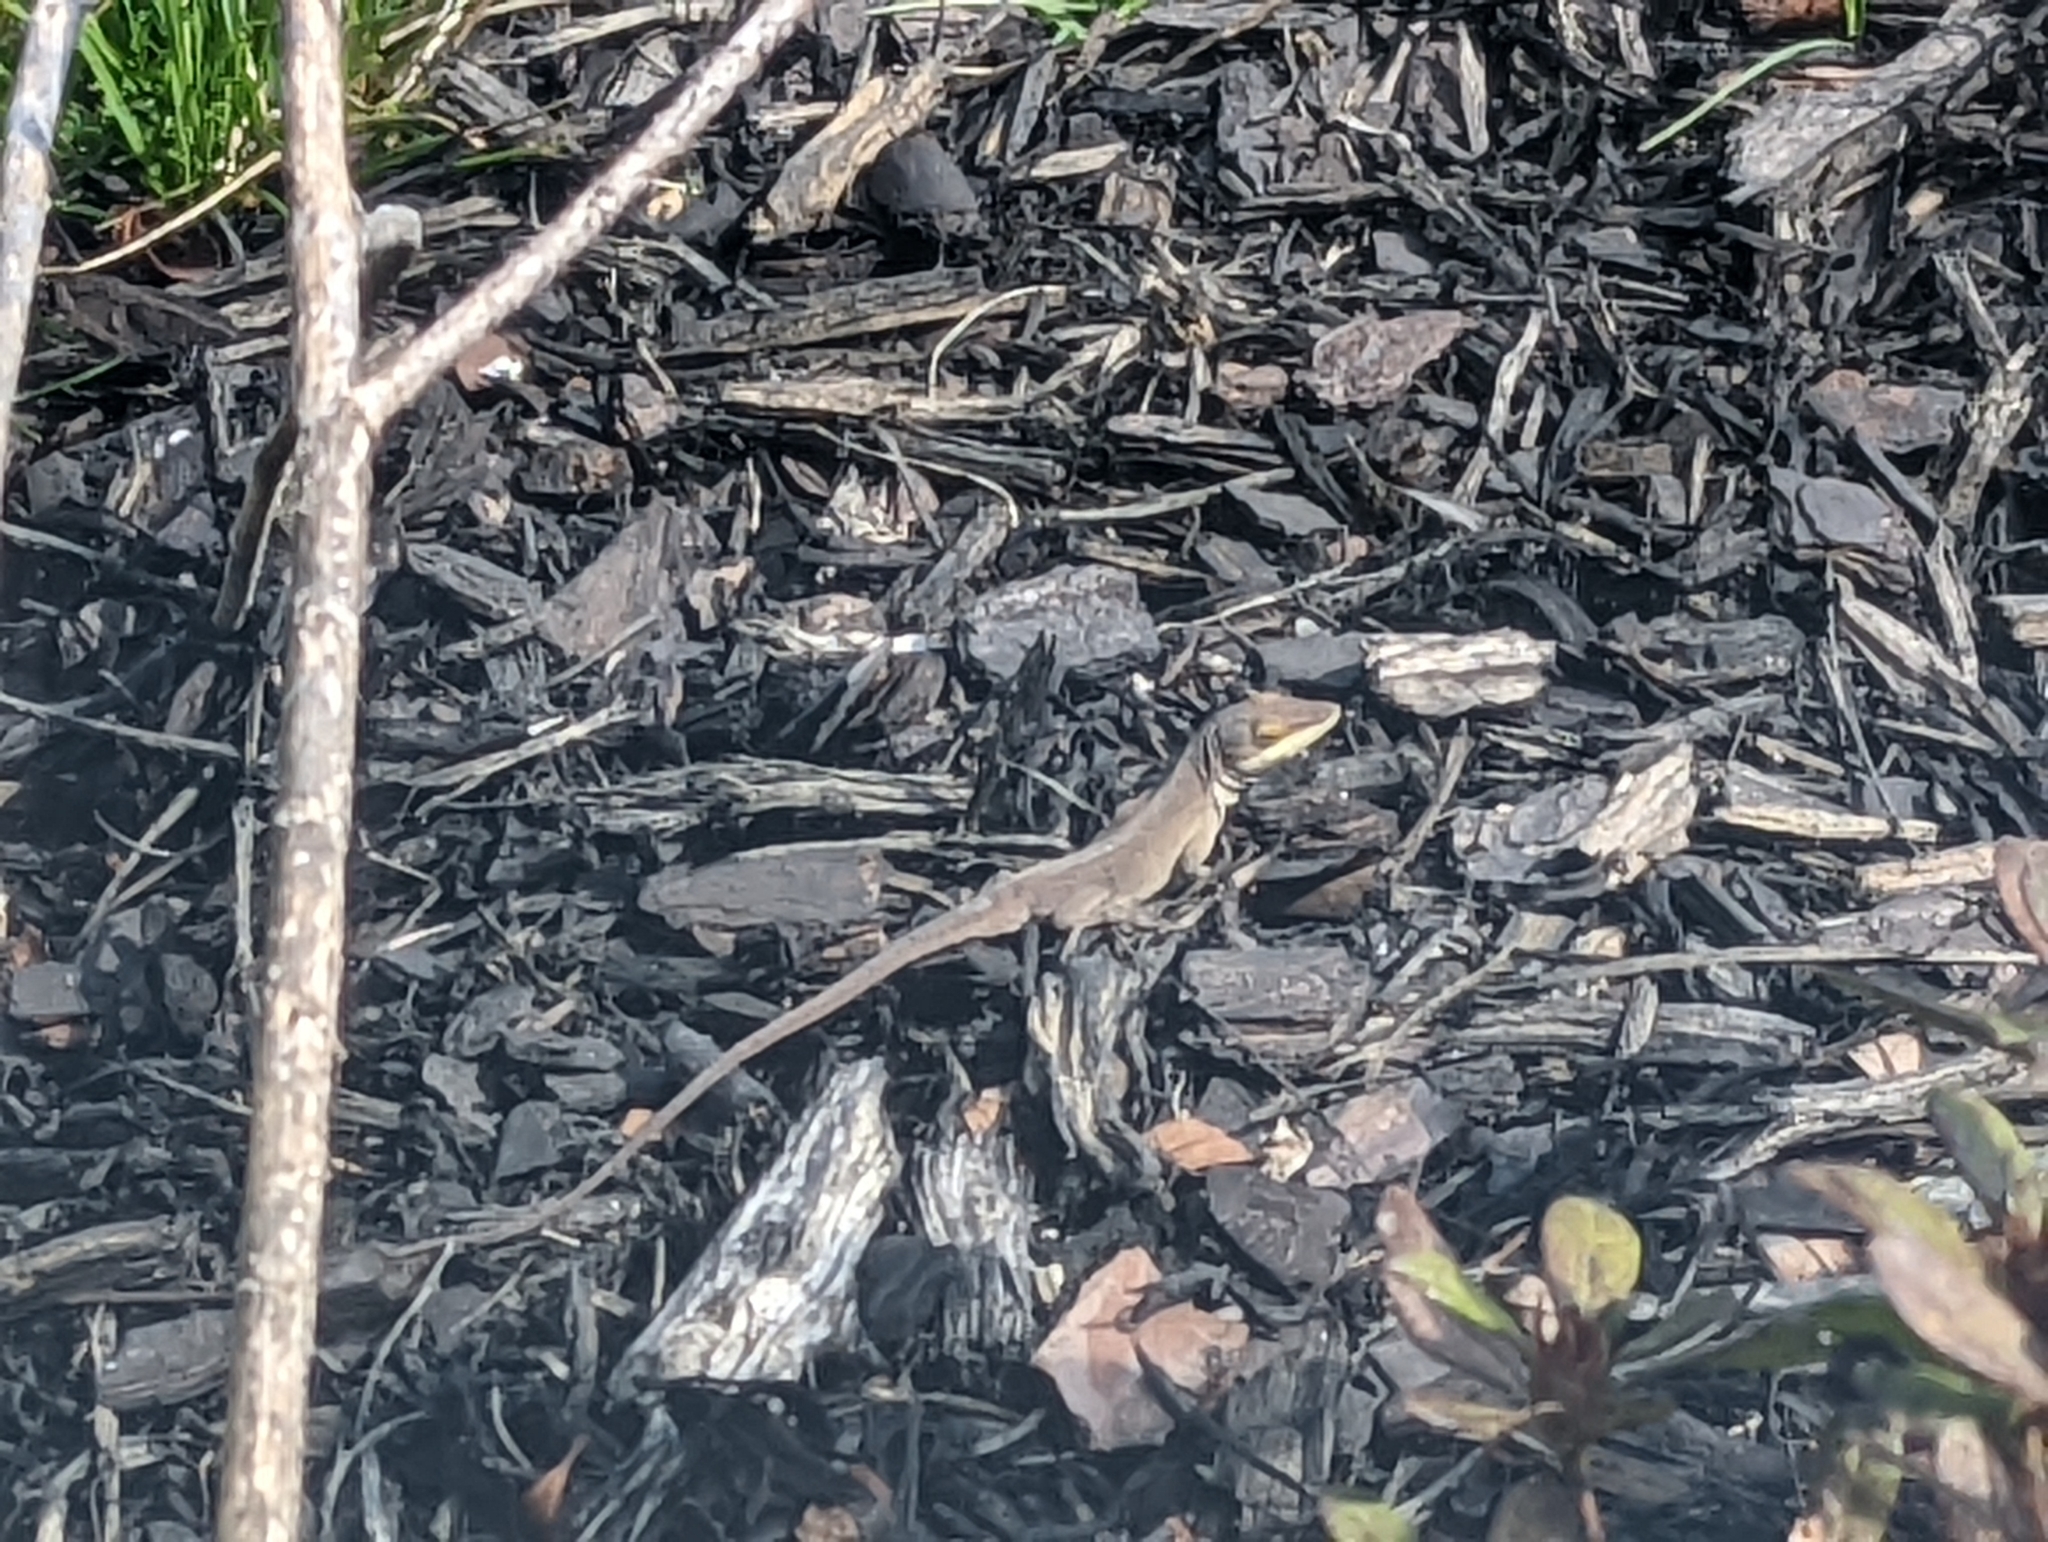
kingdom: Animalia
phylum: Chordata
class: Squamata
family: Dactyloidae
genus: Anolis
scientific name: Anolis carolinensis
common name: Green anole
